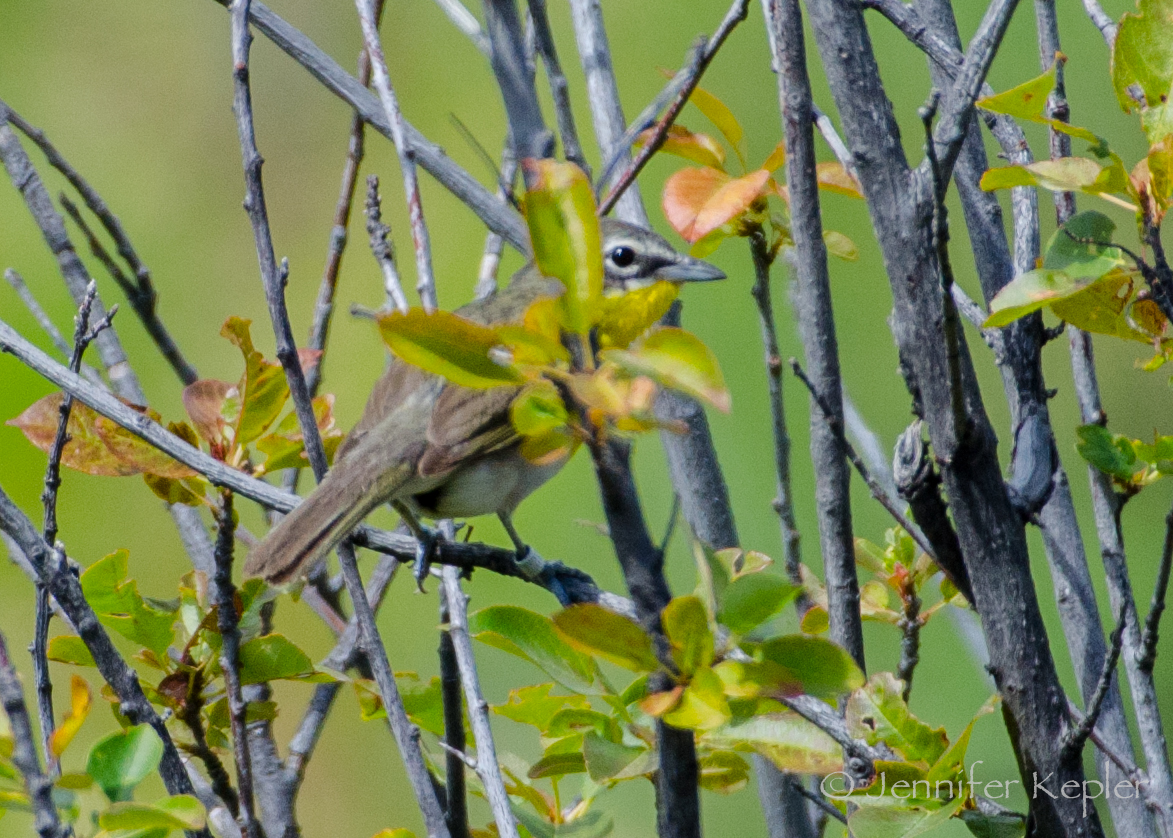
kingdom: Animalia
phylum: Chordata
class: Aves
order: Passeriformes
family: Parulidae
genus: Icteria
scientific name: Icteria virens
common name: Yellow-breasted chat
